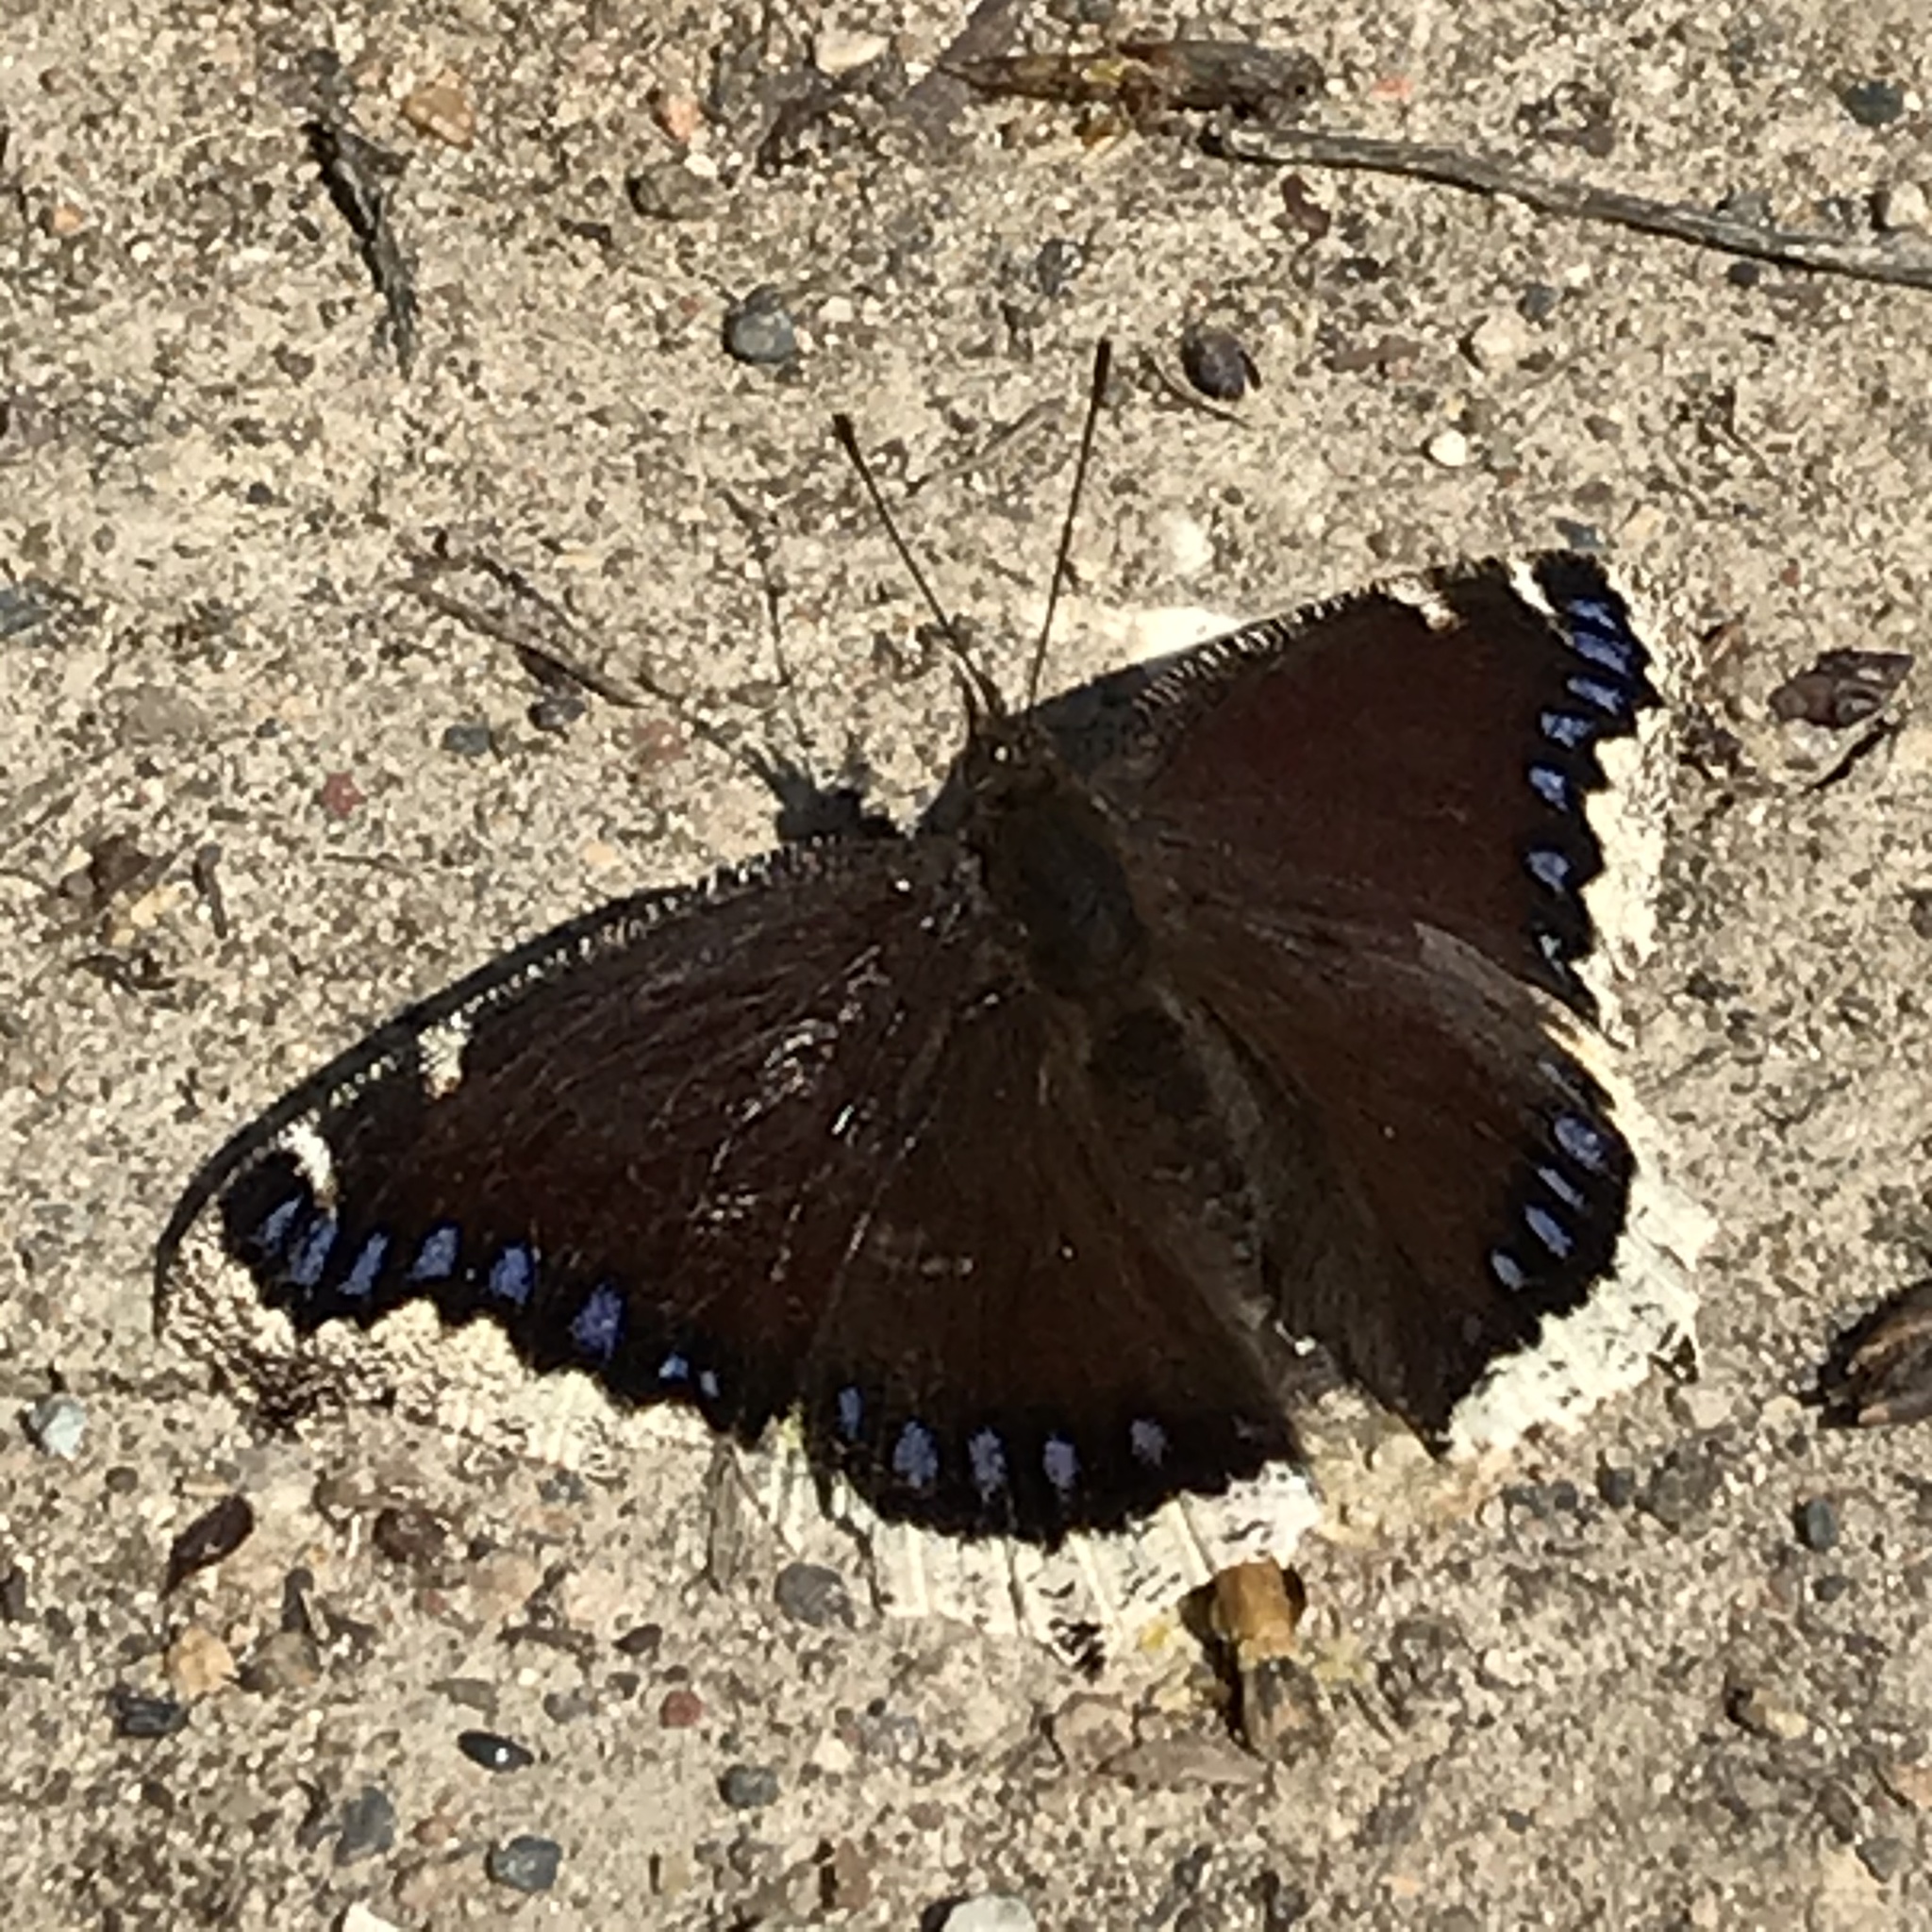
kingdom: Animalia
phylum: Arthropoda
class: Insecta
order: Lepidoptera
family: Nymphalidae
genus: Nymphalis
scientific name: Nymphalis antiopa
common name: Camberwell beauty
